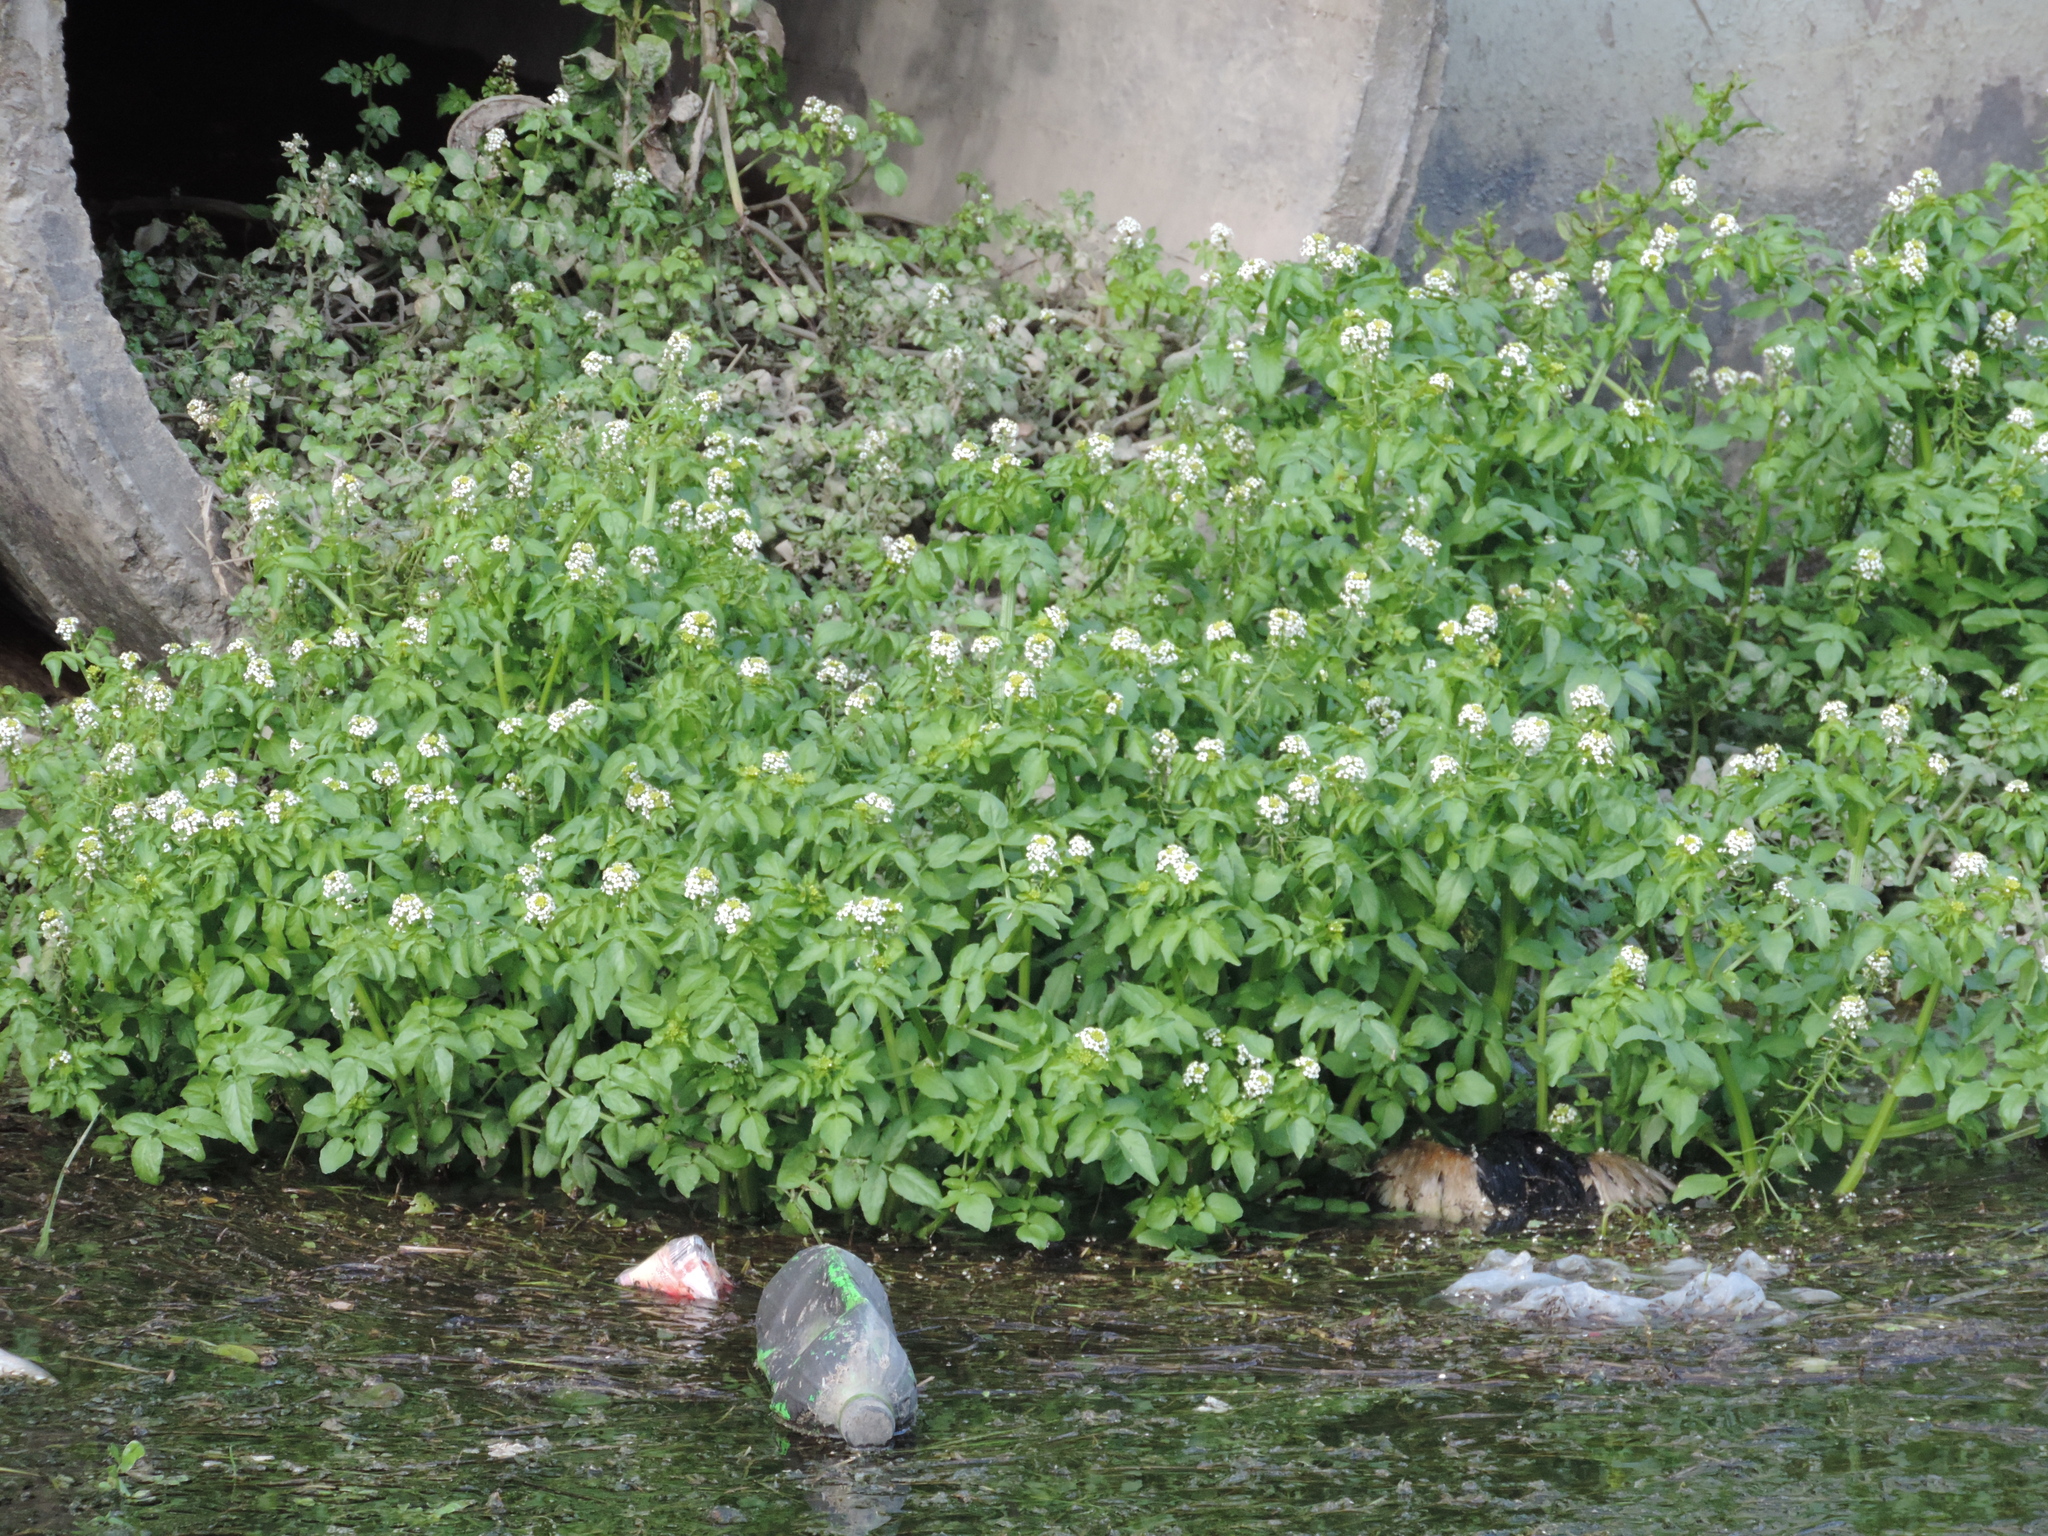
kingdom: Plantae
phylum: Tracheophyta
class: Magnoliopsida
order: Brassicales
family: Brassicaceae
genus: Nasturtium
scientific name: Nasturtium officinale
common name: Watercress
